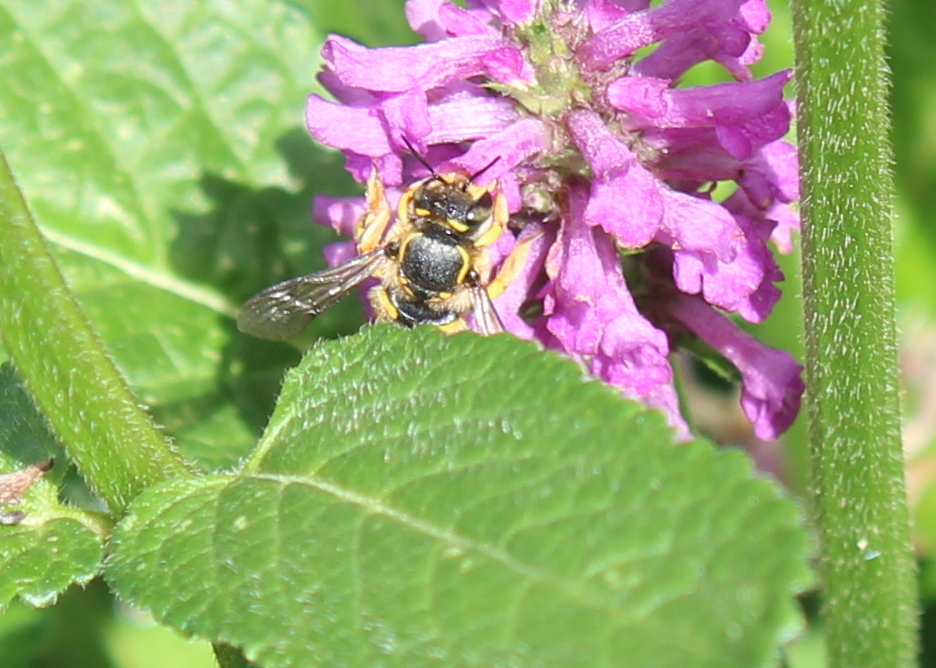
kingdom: Animalia
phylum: Arthropoda
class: Insecta
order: Hymenoptera
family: Megachilidae
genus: Anthidium
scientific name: Anthidium manicatum
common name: Wool carder bee
